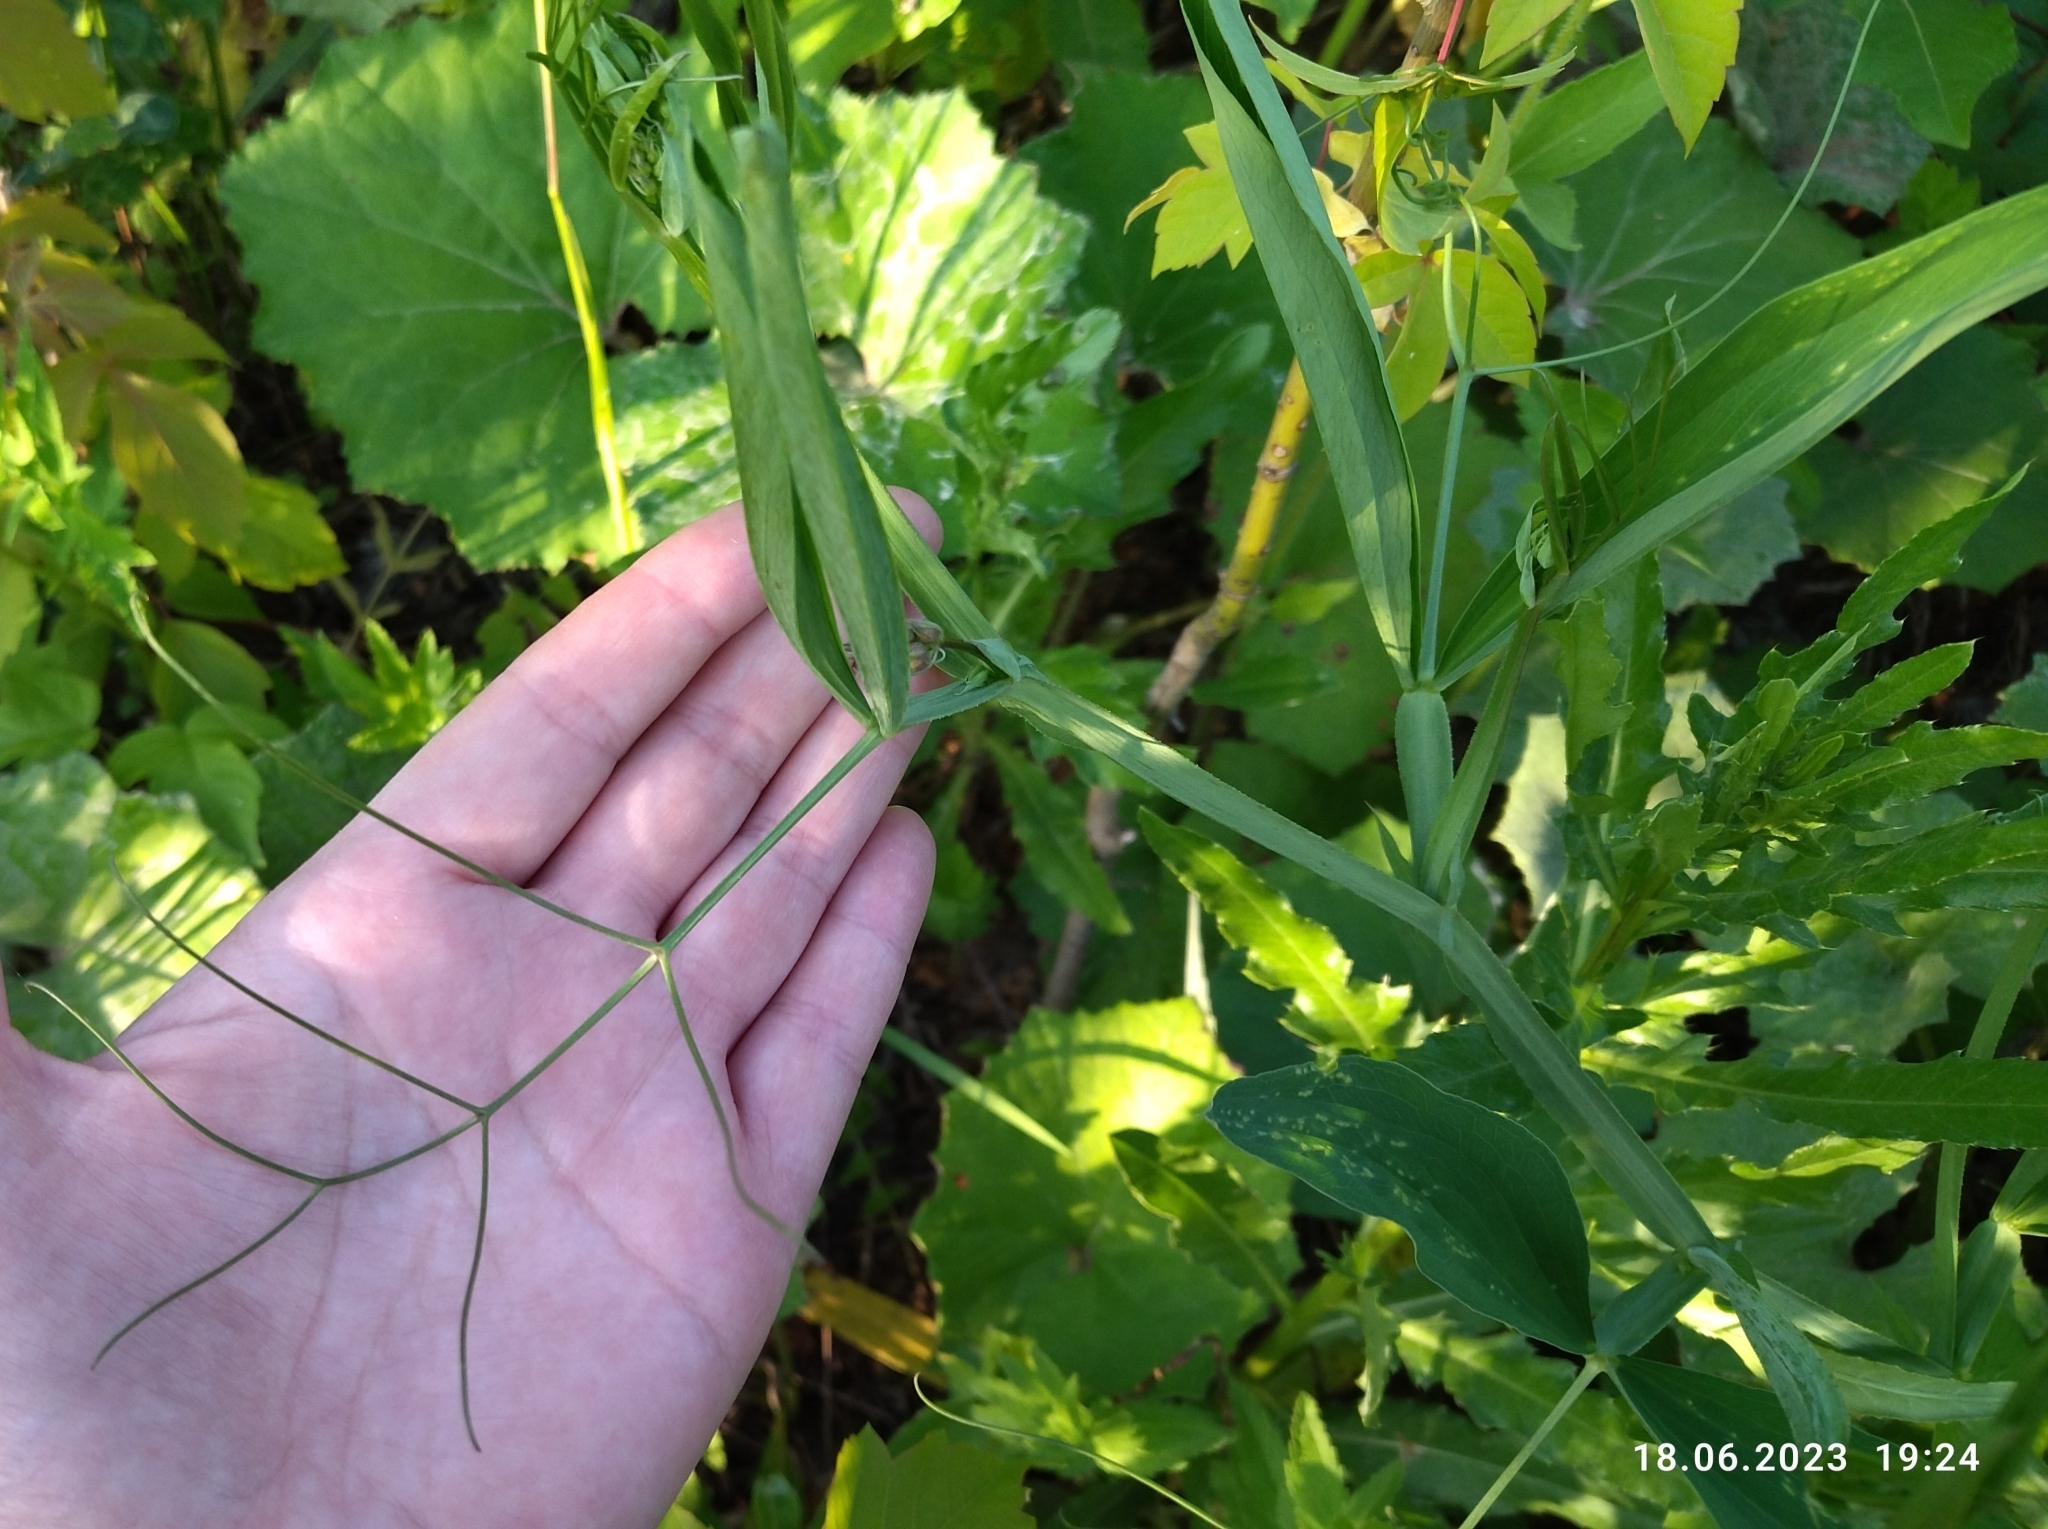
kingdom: Plantae
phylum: Tracheophyta
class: Magnoliopsida
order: Fabales
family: Fabaceae
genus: Lathyrus
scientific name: Lathyrus sylvestris
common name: Flat pea
